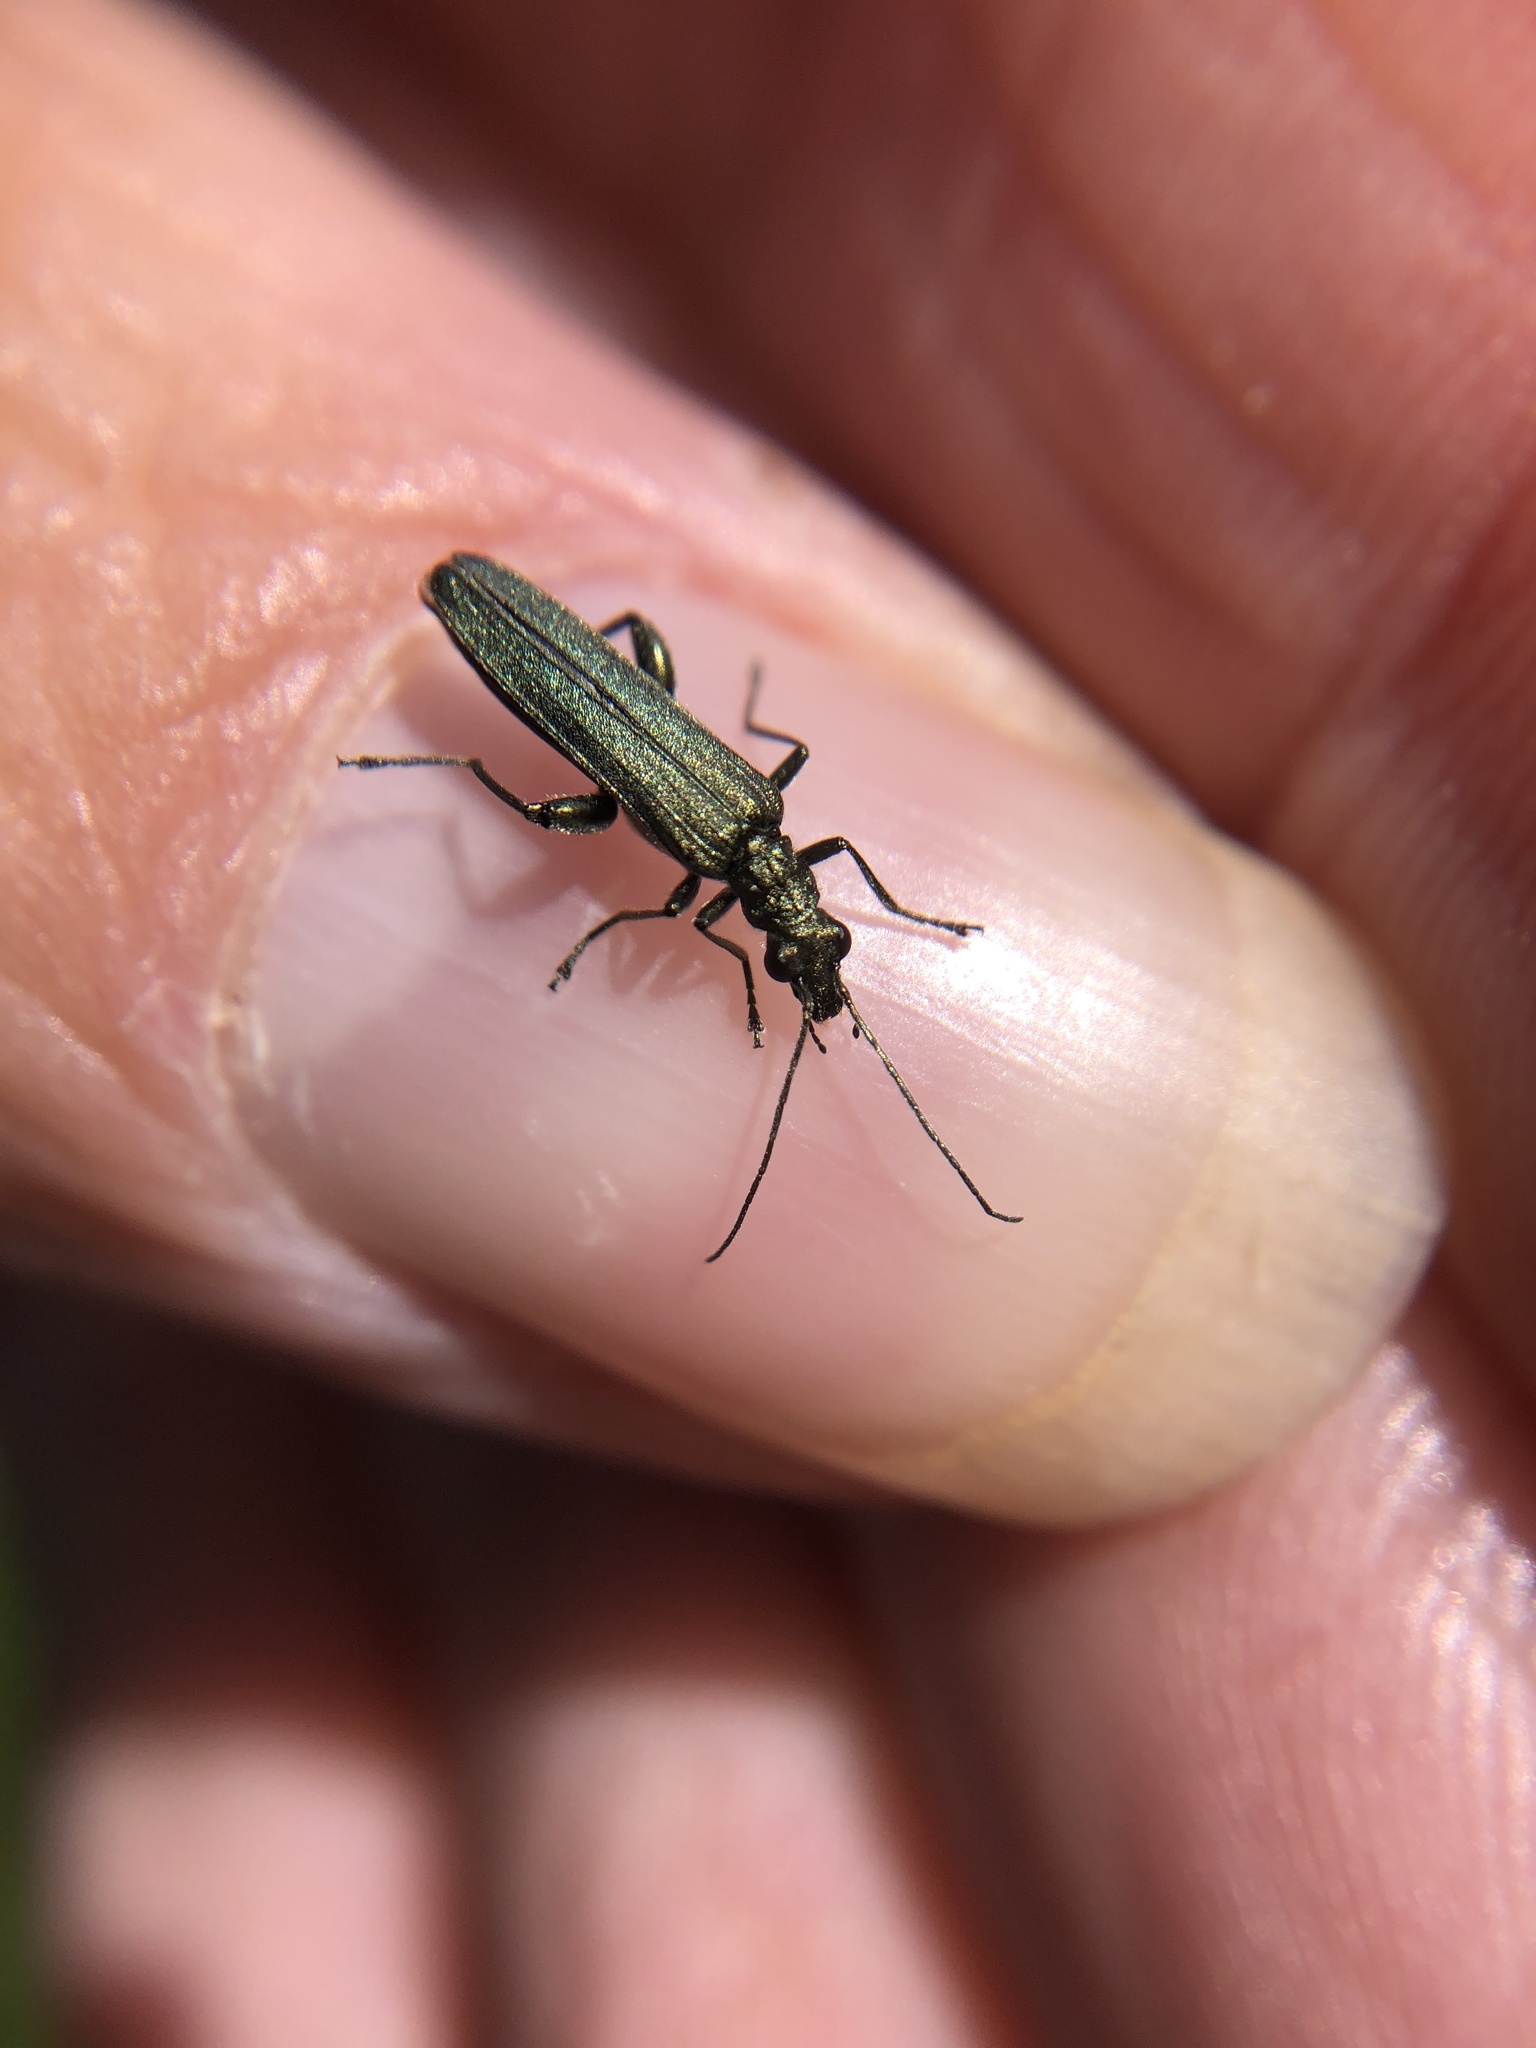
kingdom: Animalia
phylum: Arthropoda
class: Insecta
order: Coleoptera
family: Oedemeridae
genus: Oedemera
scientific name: Oedemera virescens
